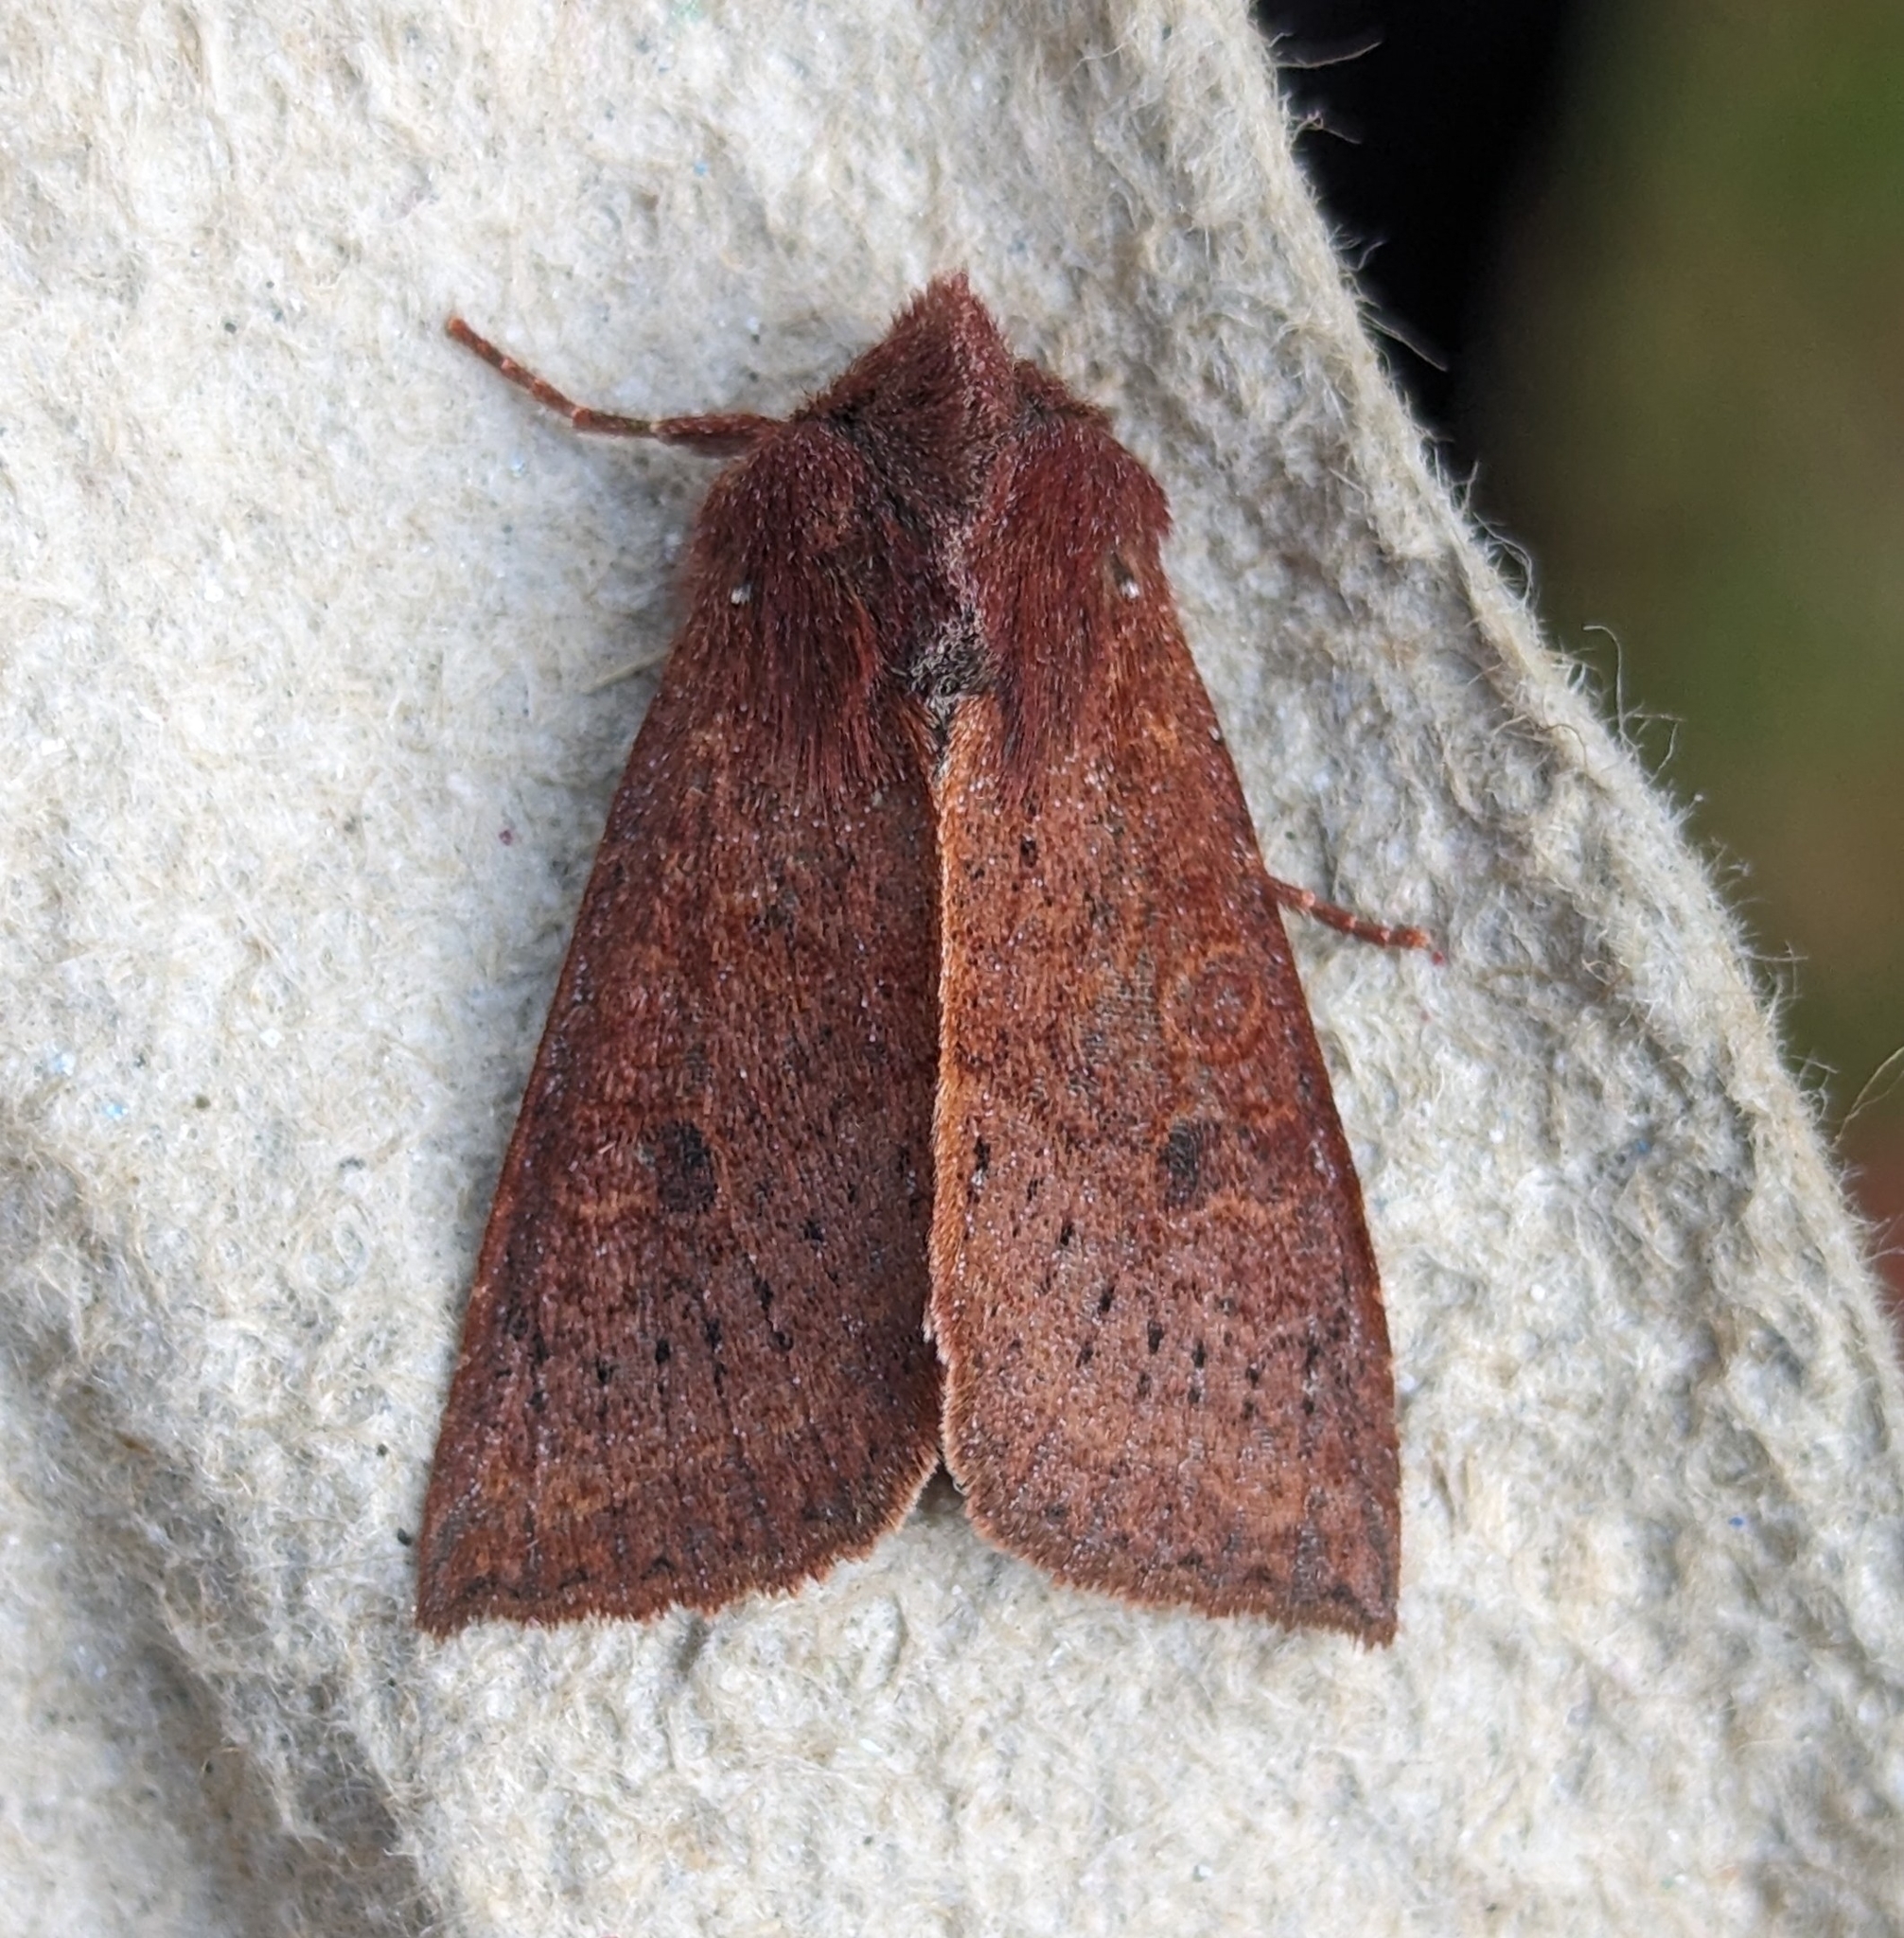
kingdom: Animalia
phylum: Arthropoda
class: Insecta
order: Lepidoptera
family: Noctuidae
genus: Orthosia
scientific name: Orthosia transparens
